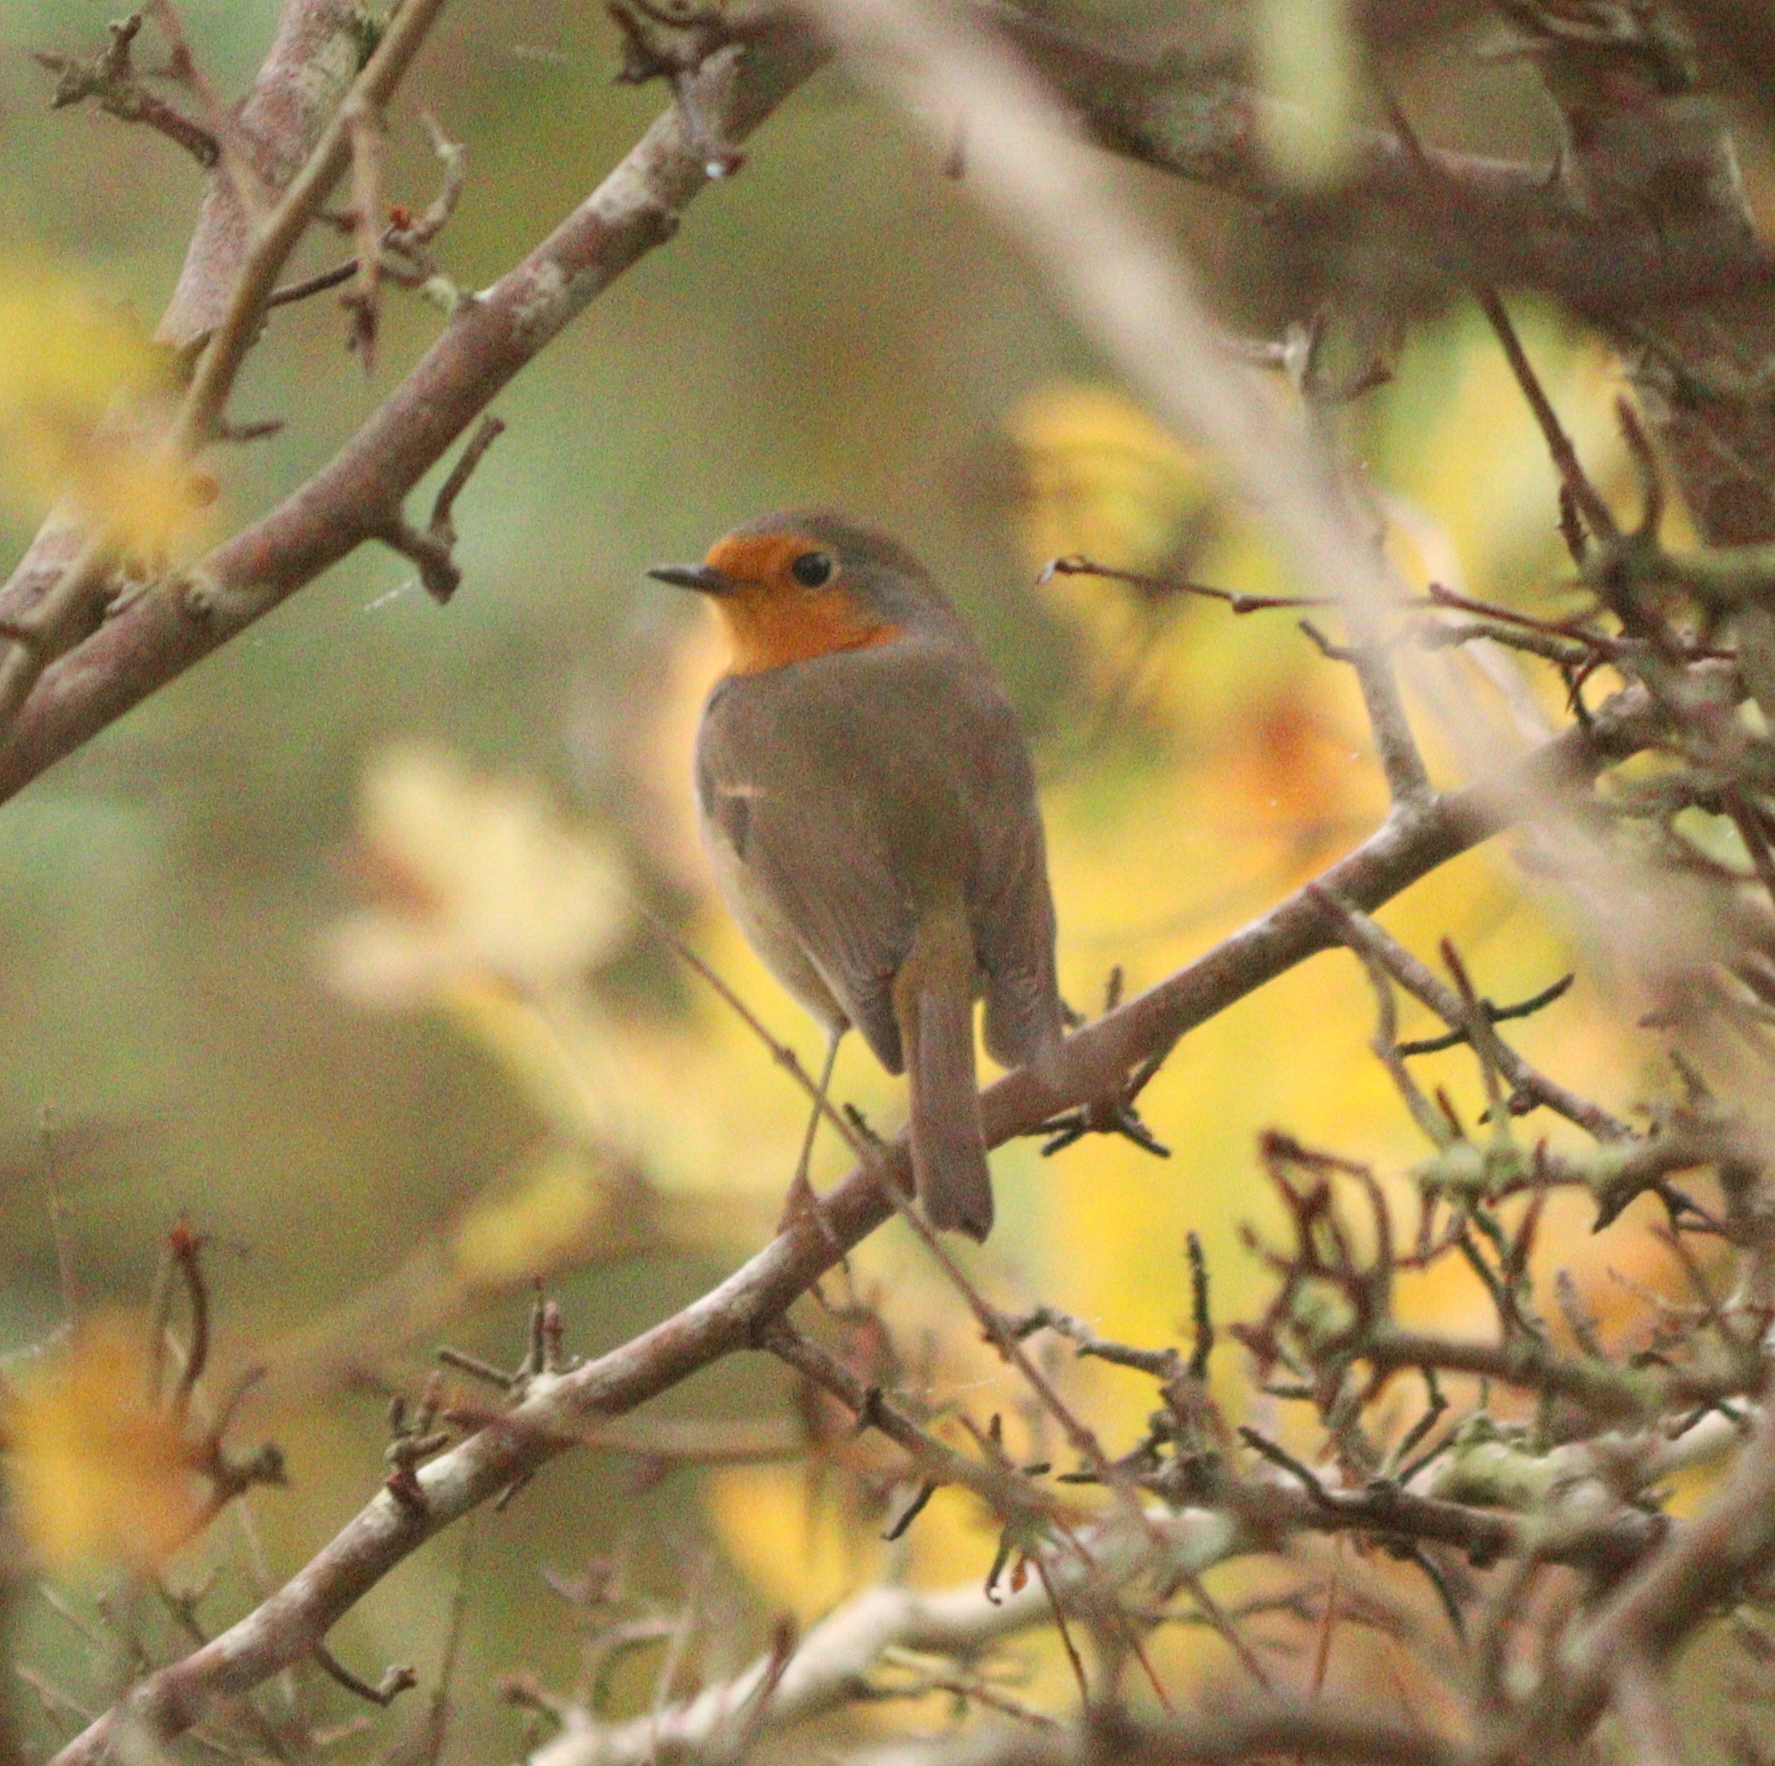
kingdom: Animalia
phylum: Chordata
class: Aves
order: Passeriformes
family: Muscicapidae
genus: Erithacus
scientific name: Erithacus rubecula
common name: European robin
